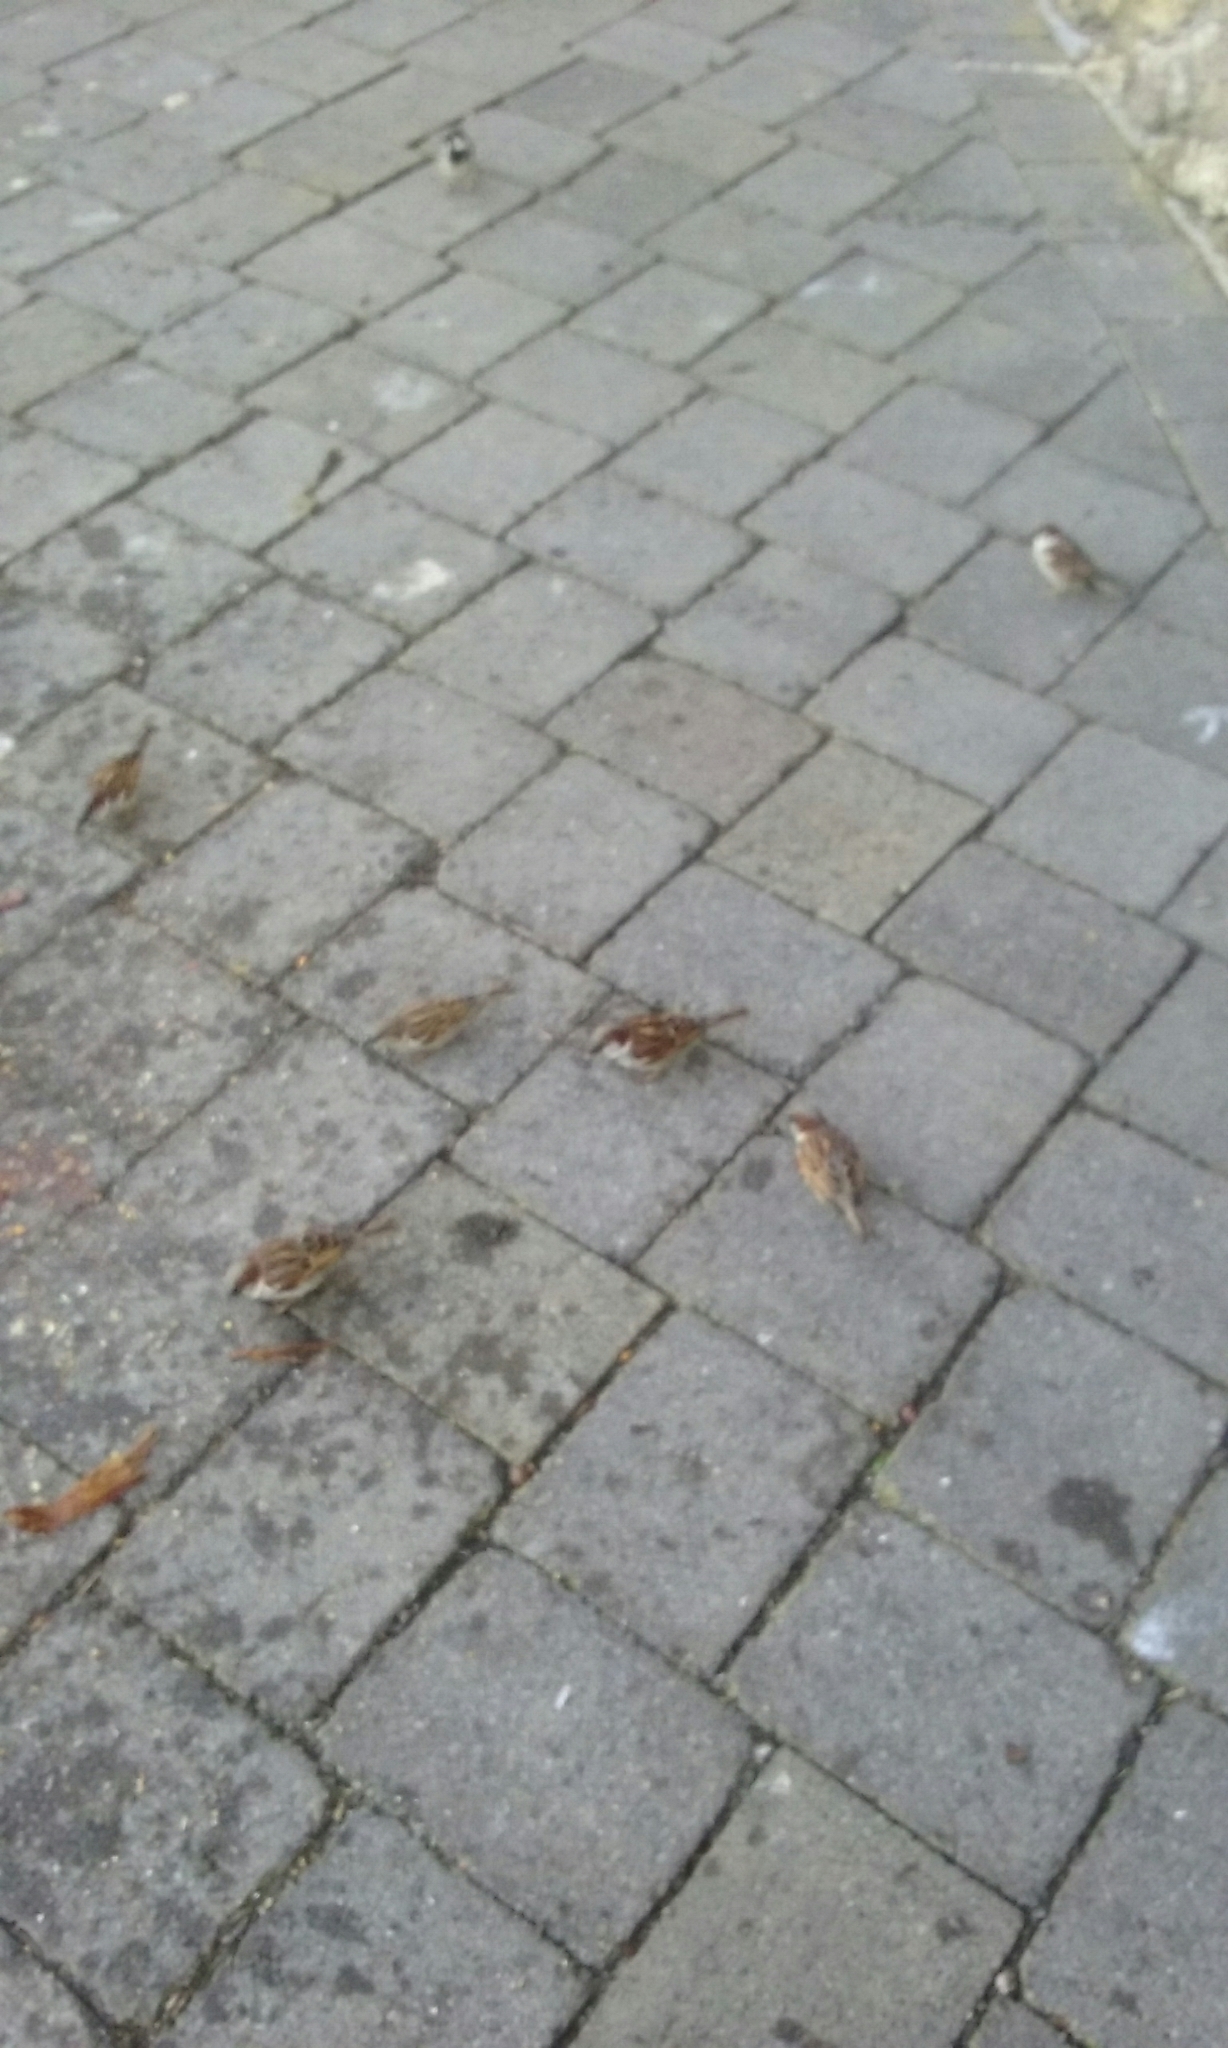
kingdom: Animalia
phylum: Chordata
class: Aves
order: Passeriformes
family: Passeridae
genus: Passer
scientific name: Passer domesticus
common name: House sparrow
